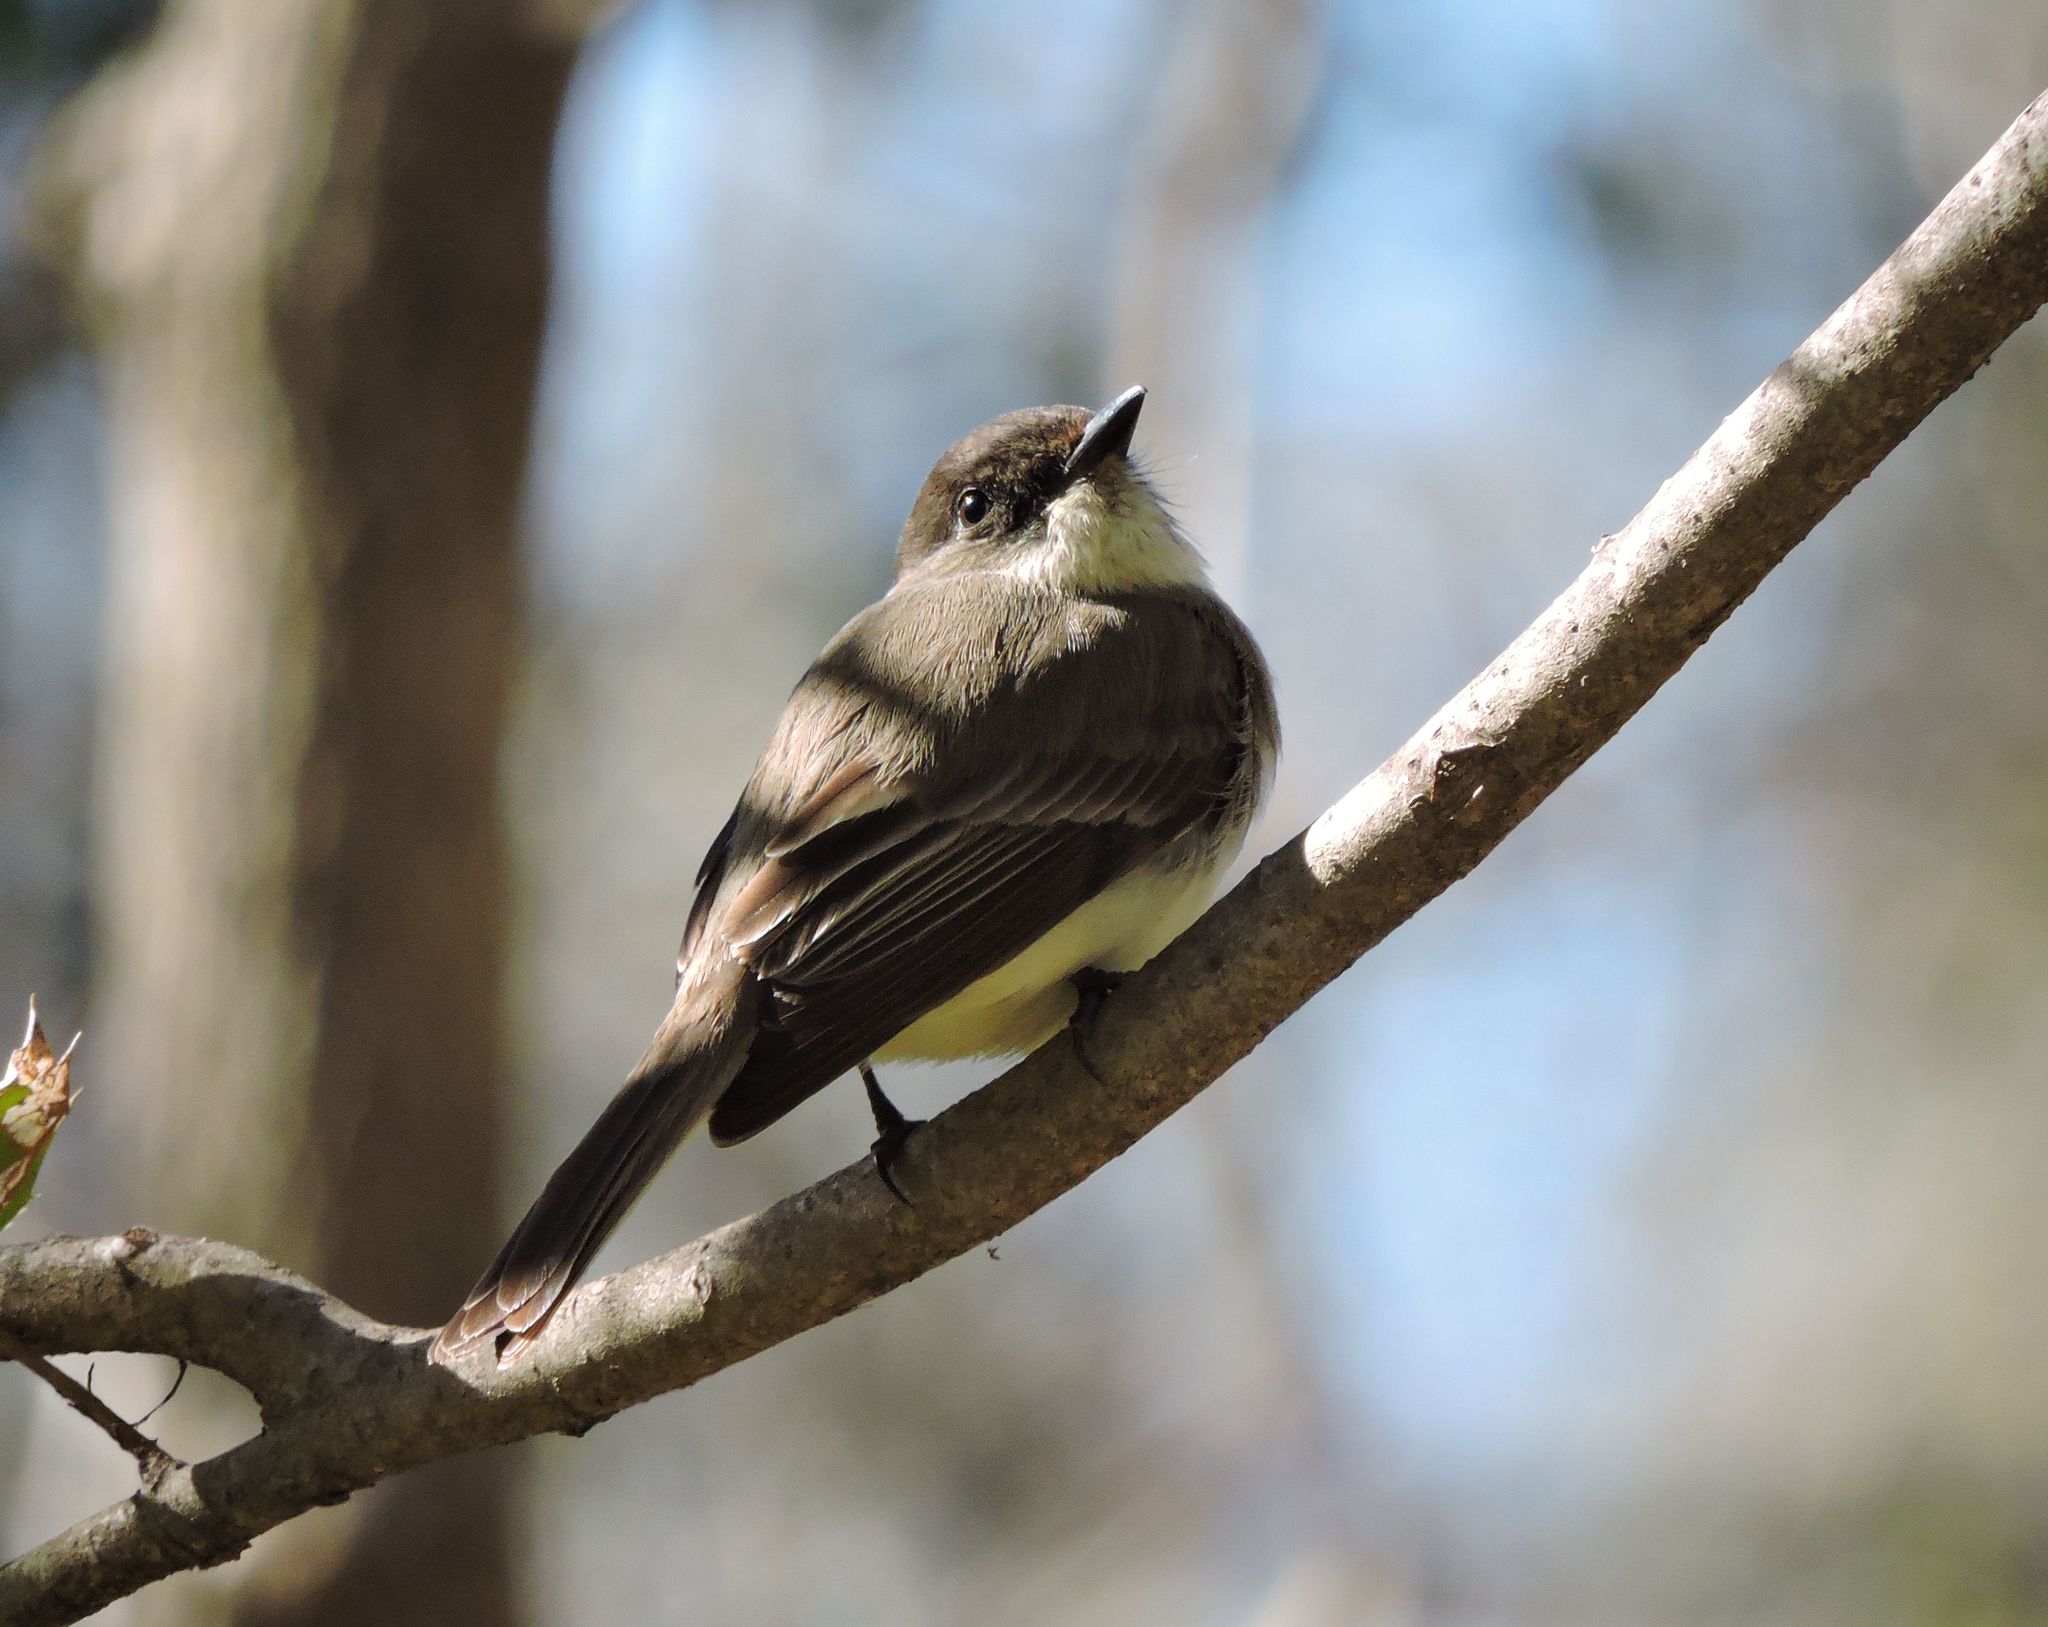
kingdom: Animalia
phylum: Chordata
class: Aves
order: Passeriformes
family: Tyrannidae
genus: Sayornis
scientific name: Sayornis phoebe
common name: Eastern phoebe
